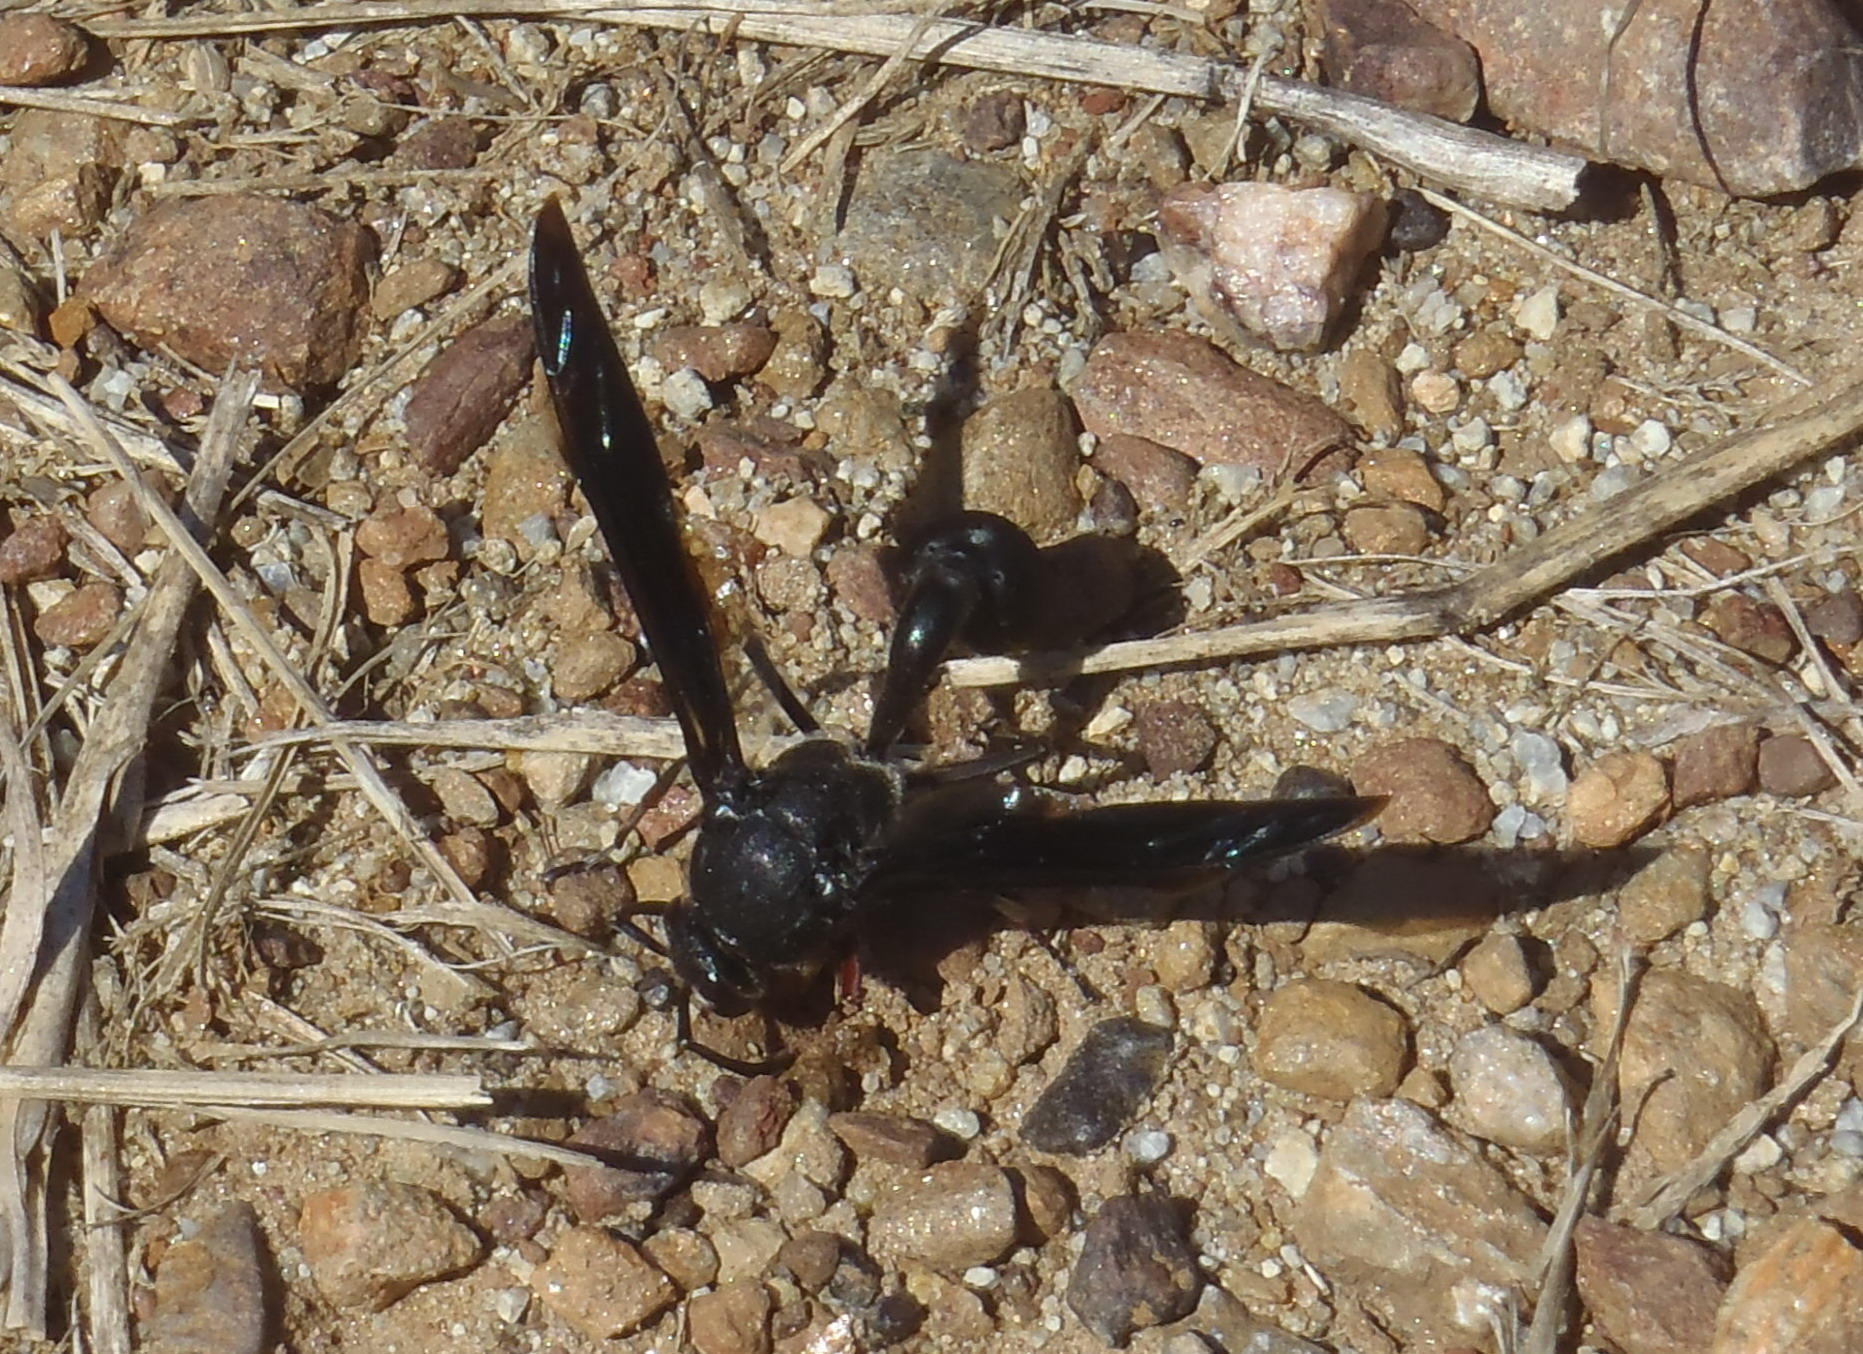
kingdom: Animalia
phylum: Arthropoda
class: Insecta
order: Hymenoptera
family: Eumenidae
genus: Delta
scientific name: Delta bonellii
